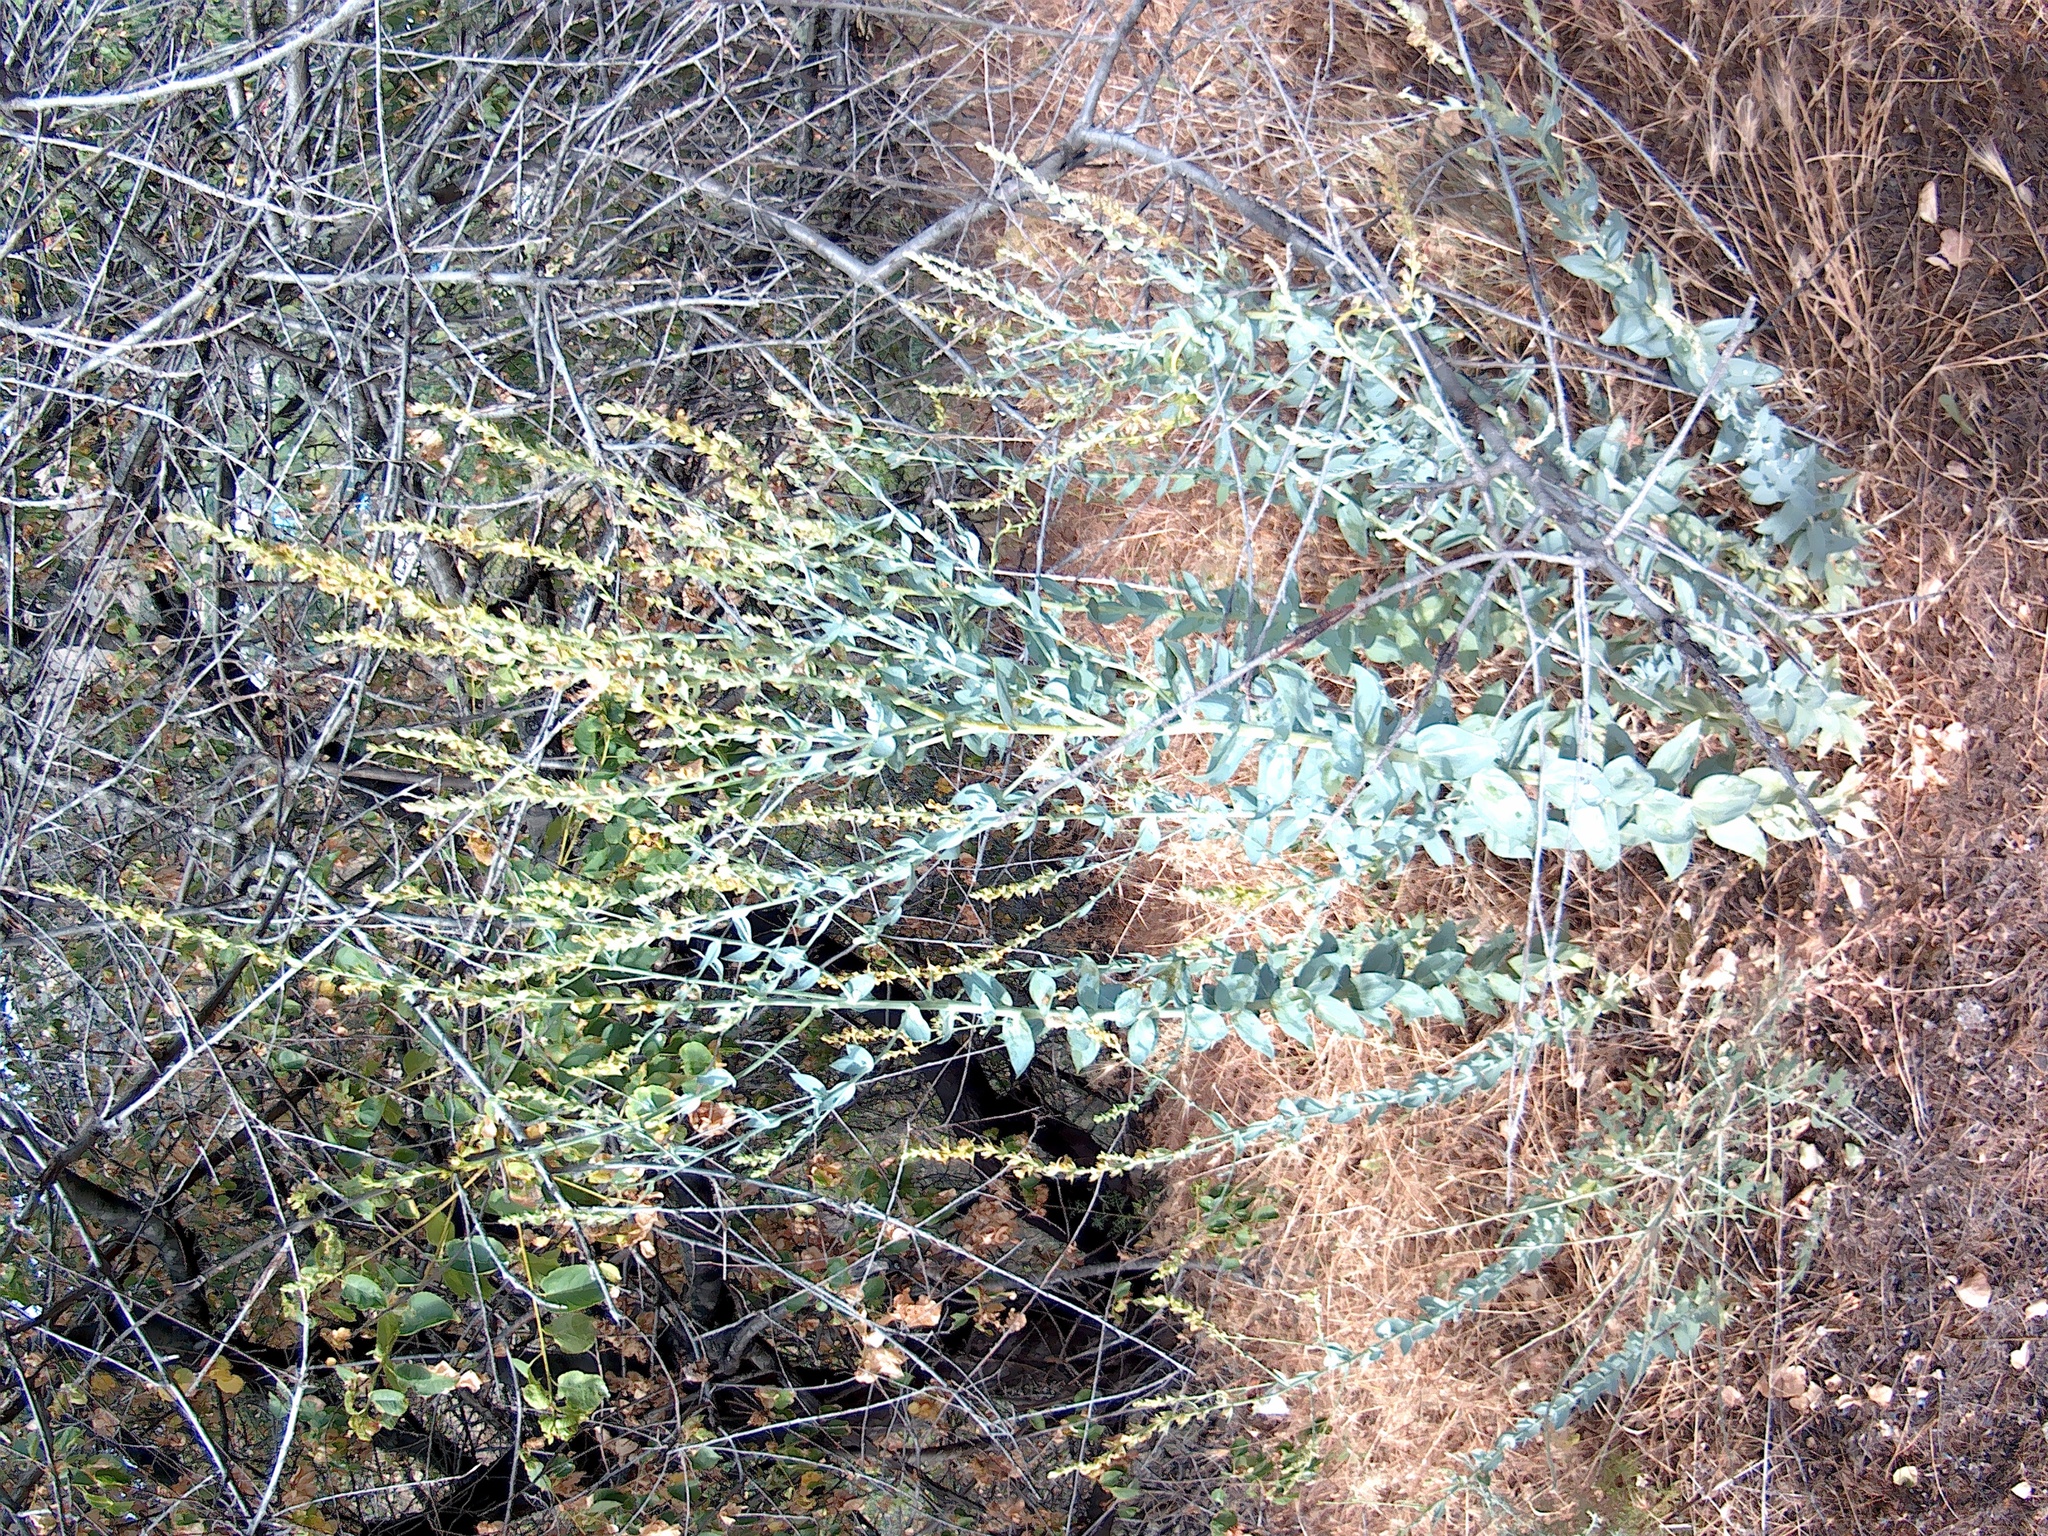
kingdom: Plantae
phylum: Tracheophyta
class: Magnoliopsida
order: Lamiales
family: Plantaginaceae
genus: Linaria
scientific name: Linaria genistifolia
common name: Broomleaf toadflax
